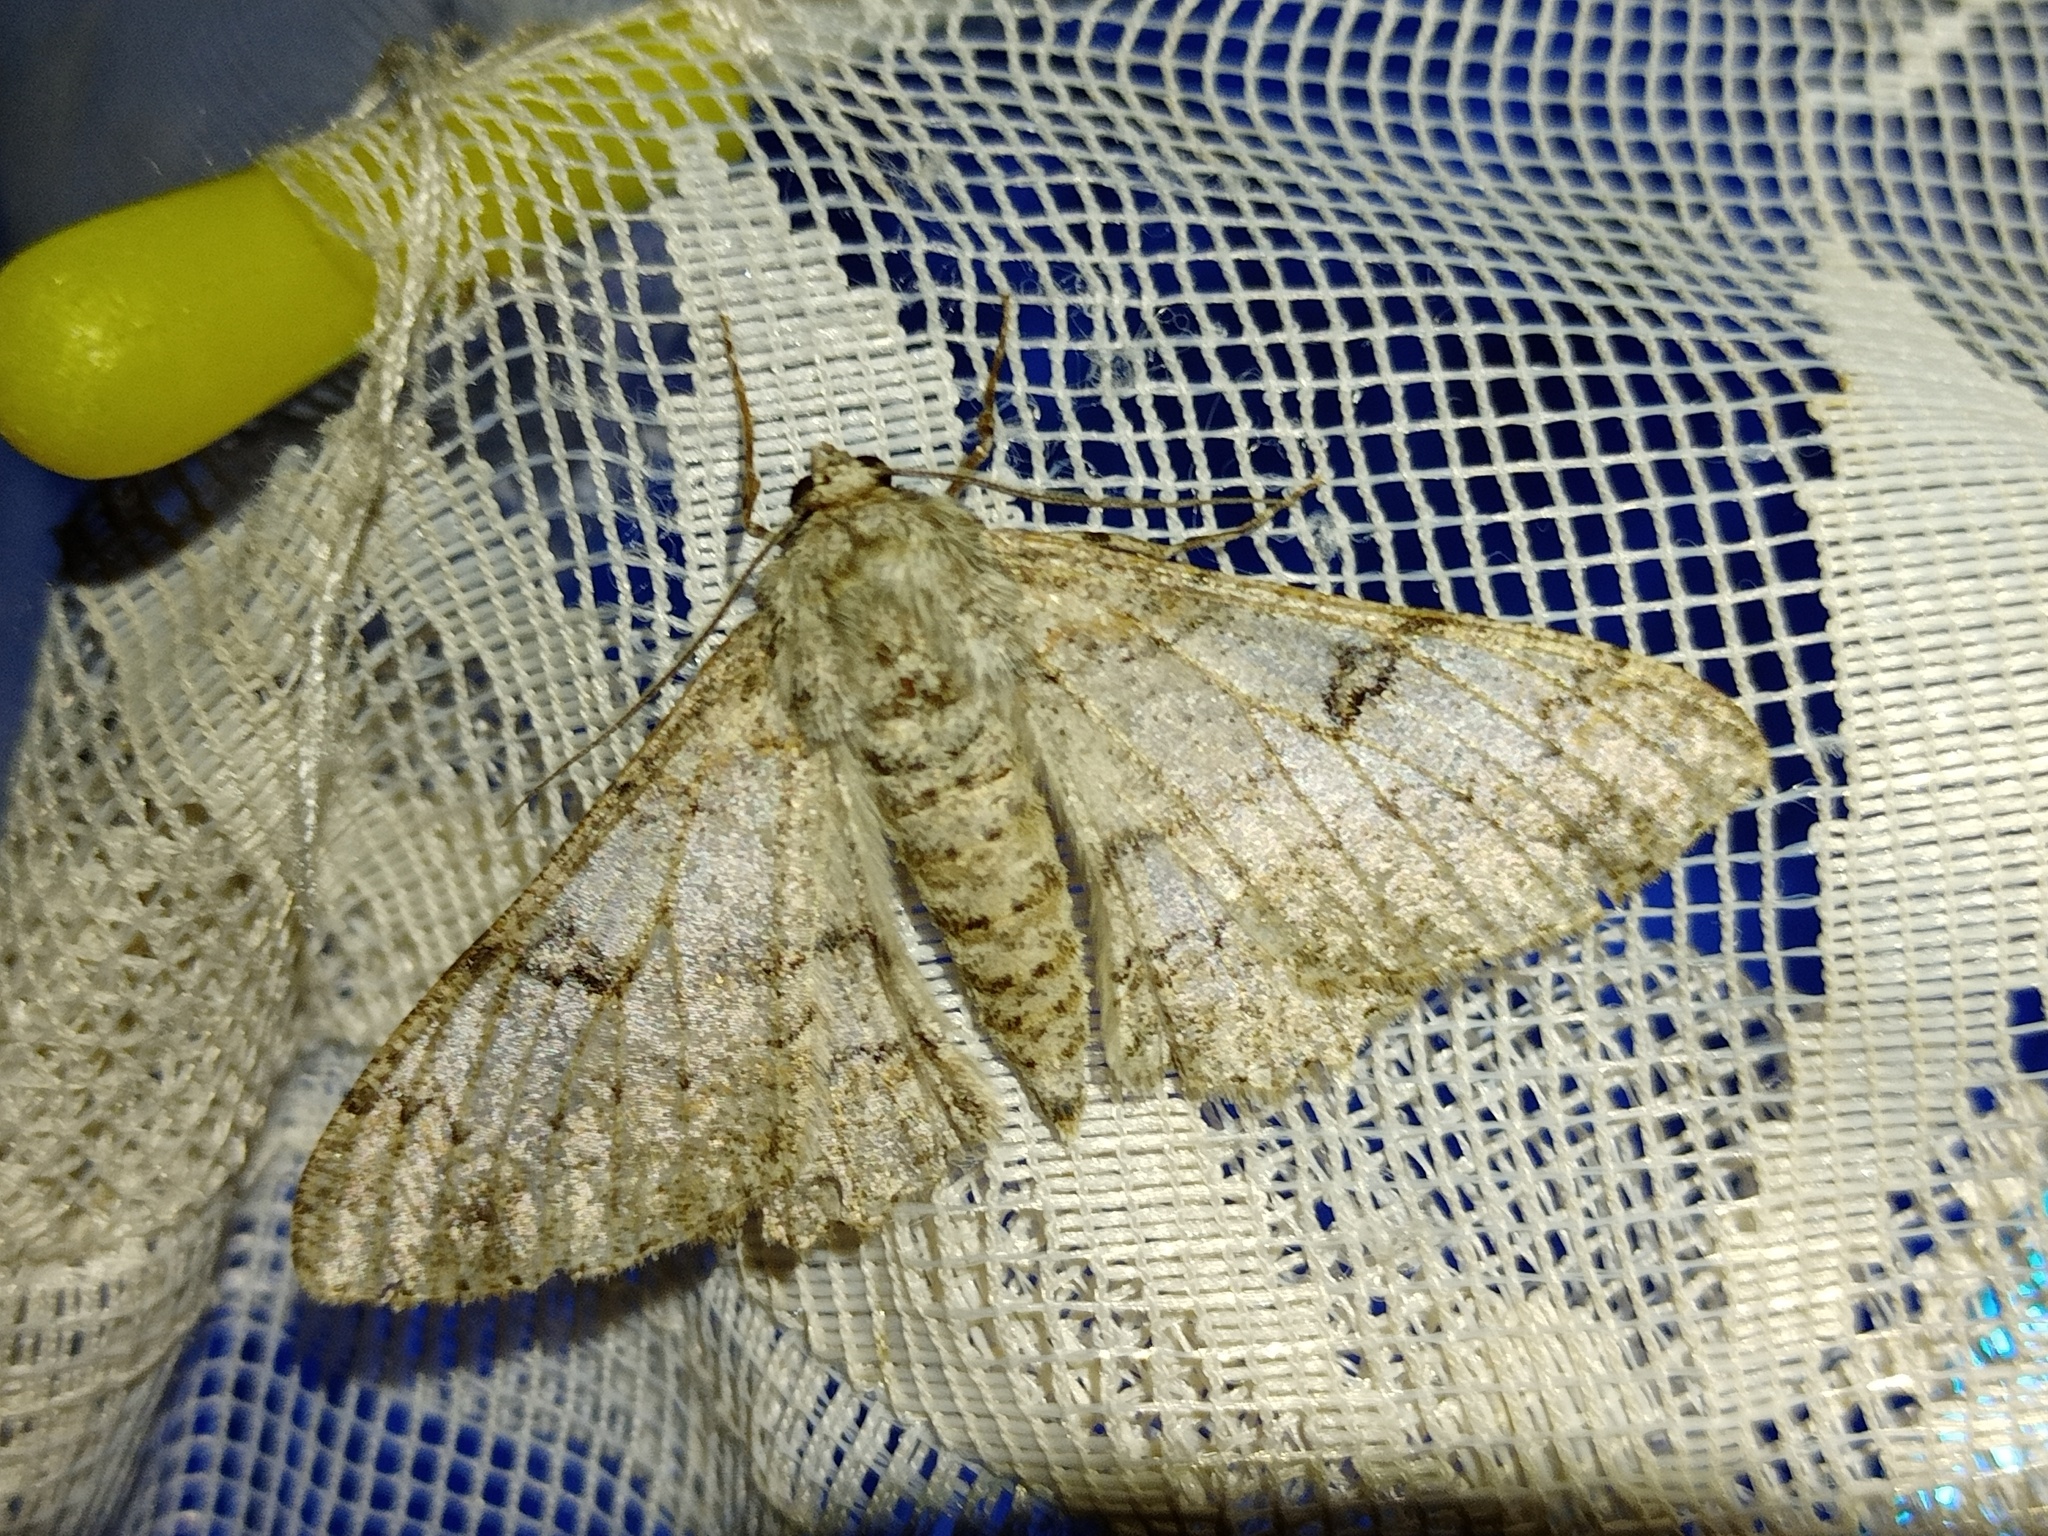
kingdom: Animalia
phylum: Arthropoda
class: Insecta
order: Lepidoptera
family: Geometridae
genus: Ascotis
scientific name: Ascotis selenaria
